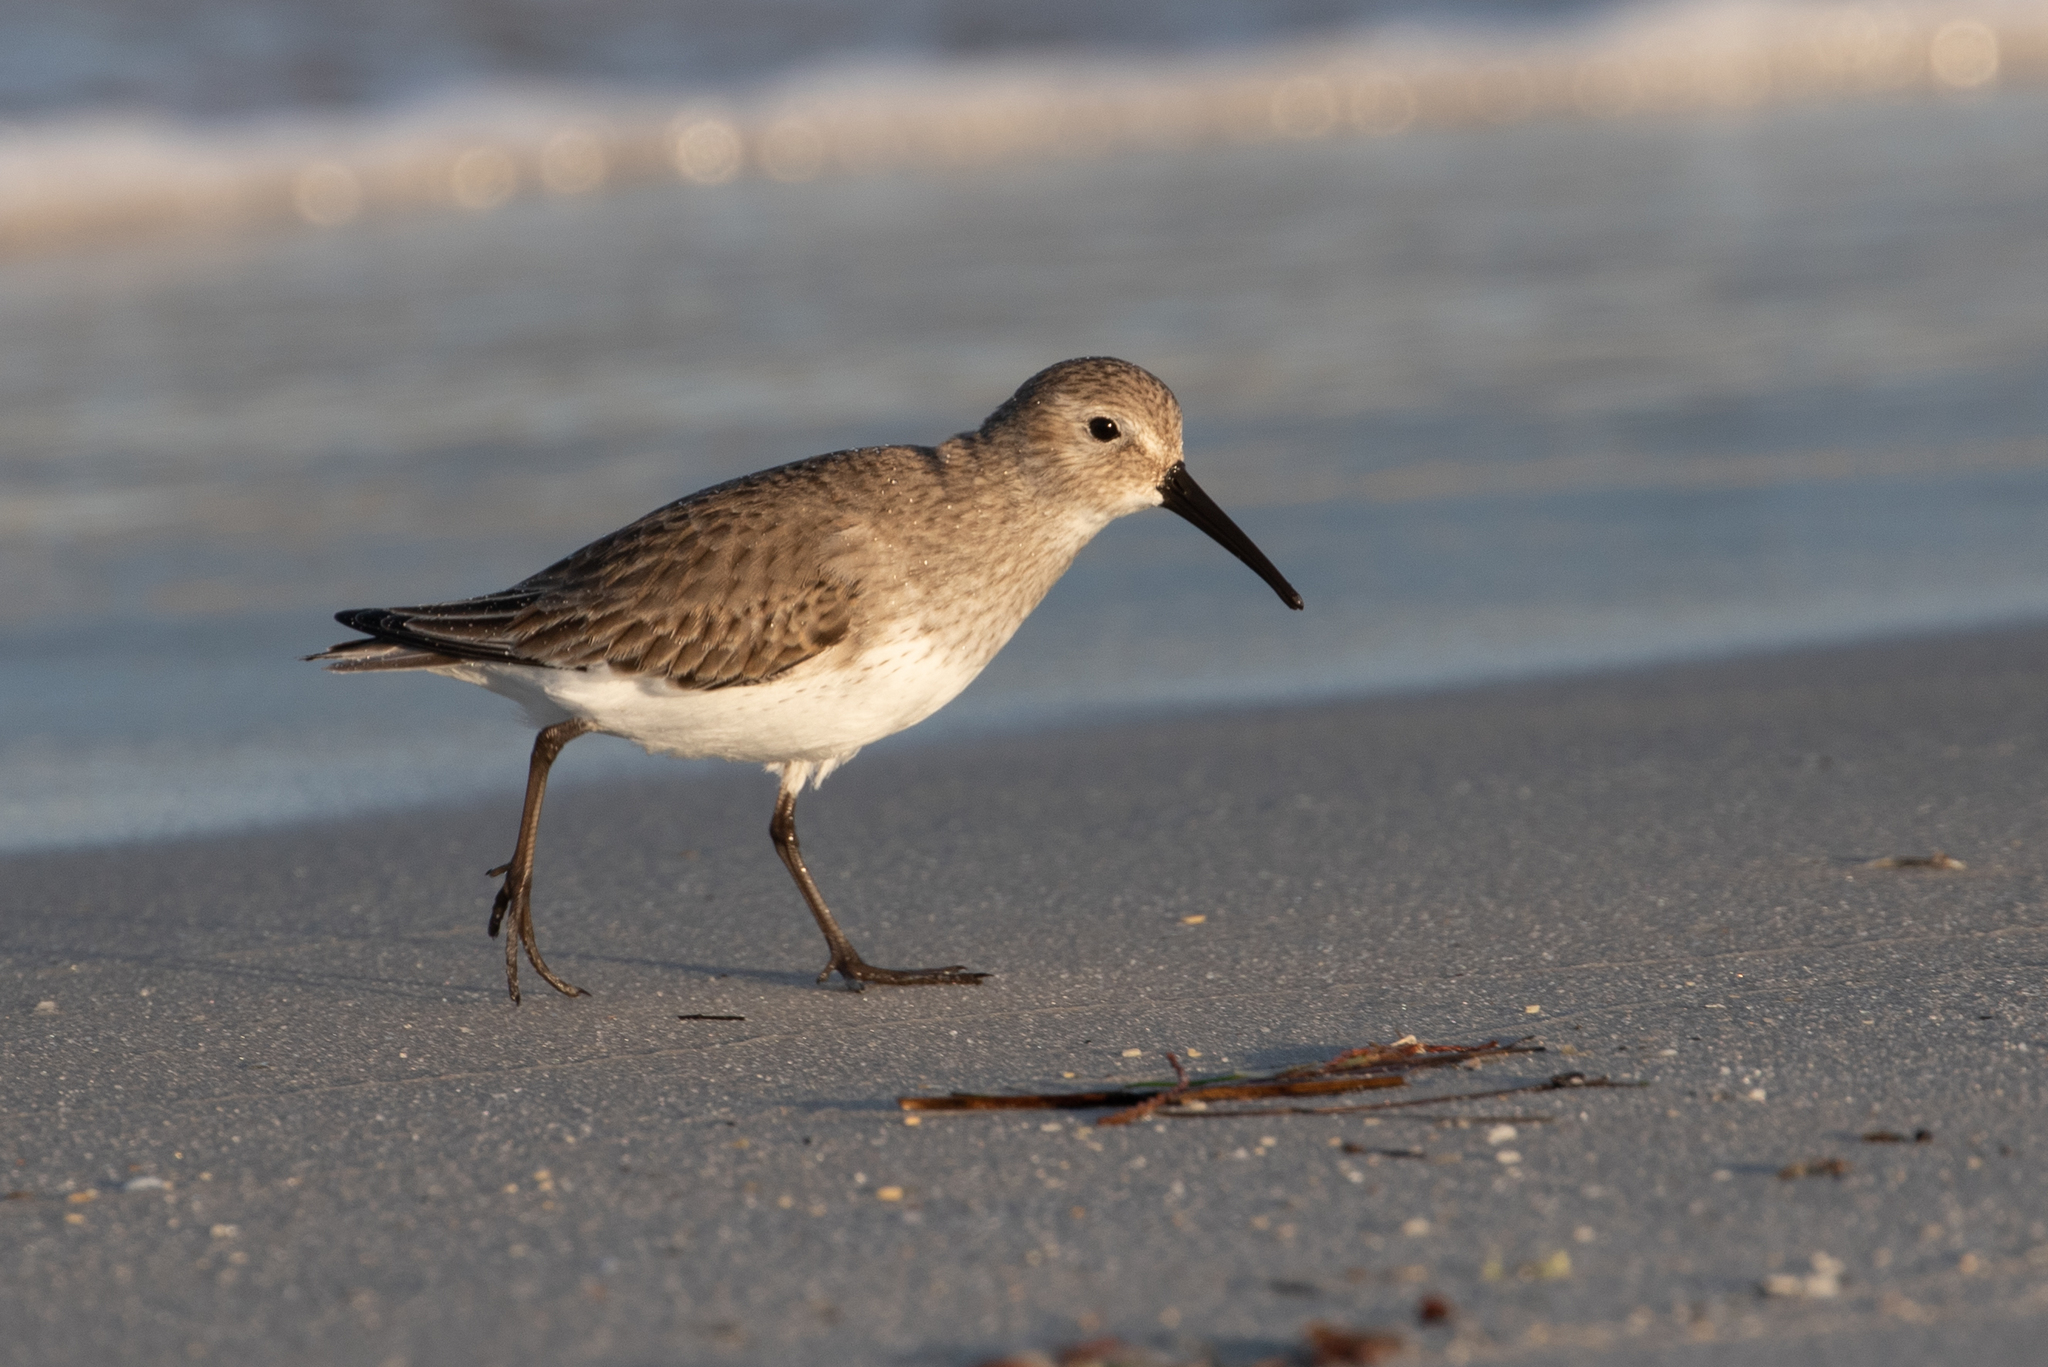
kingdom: Animalia
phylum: Chordata
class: Aves
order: Charadriiformes
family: Scolopacidae
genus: Calidris
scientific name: Calidris alpina
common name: Dunlin
